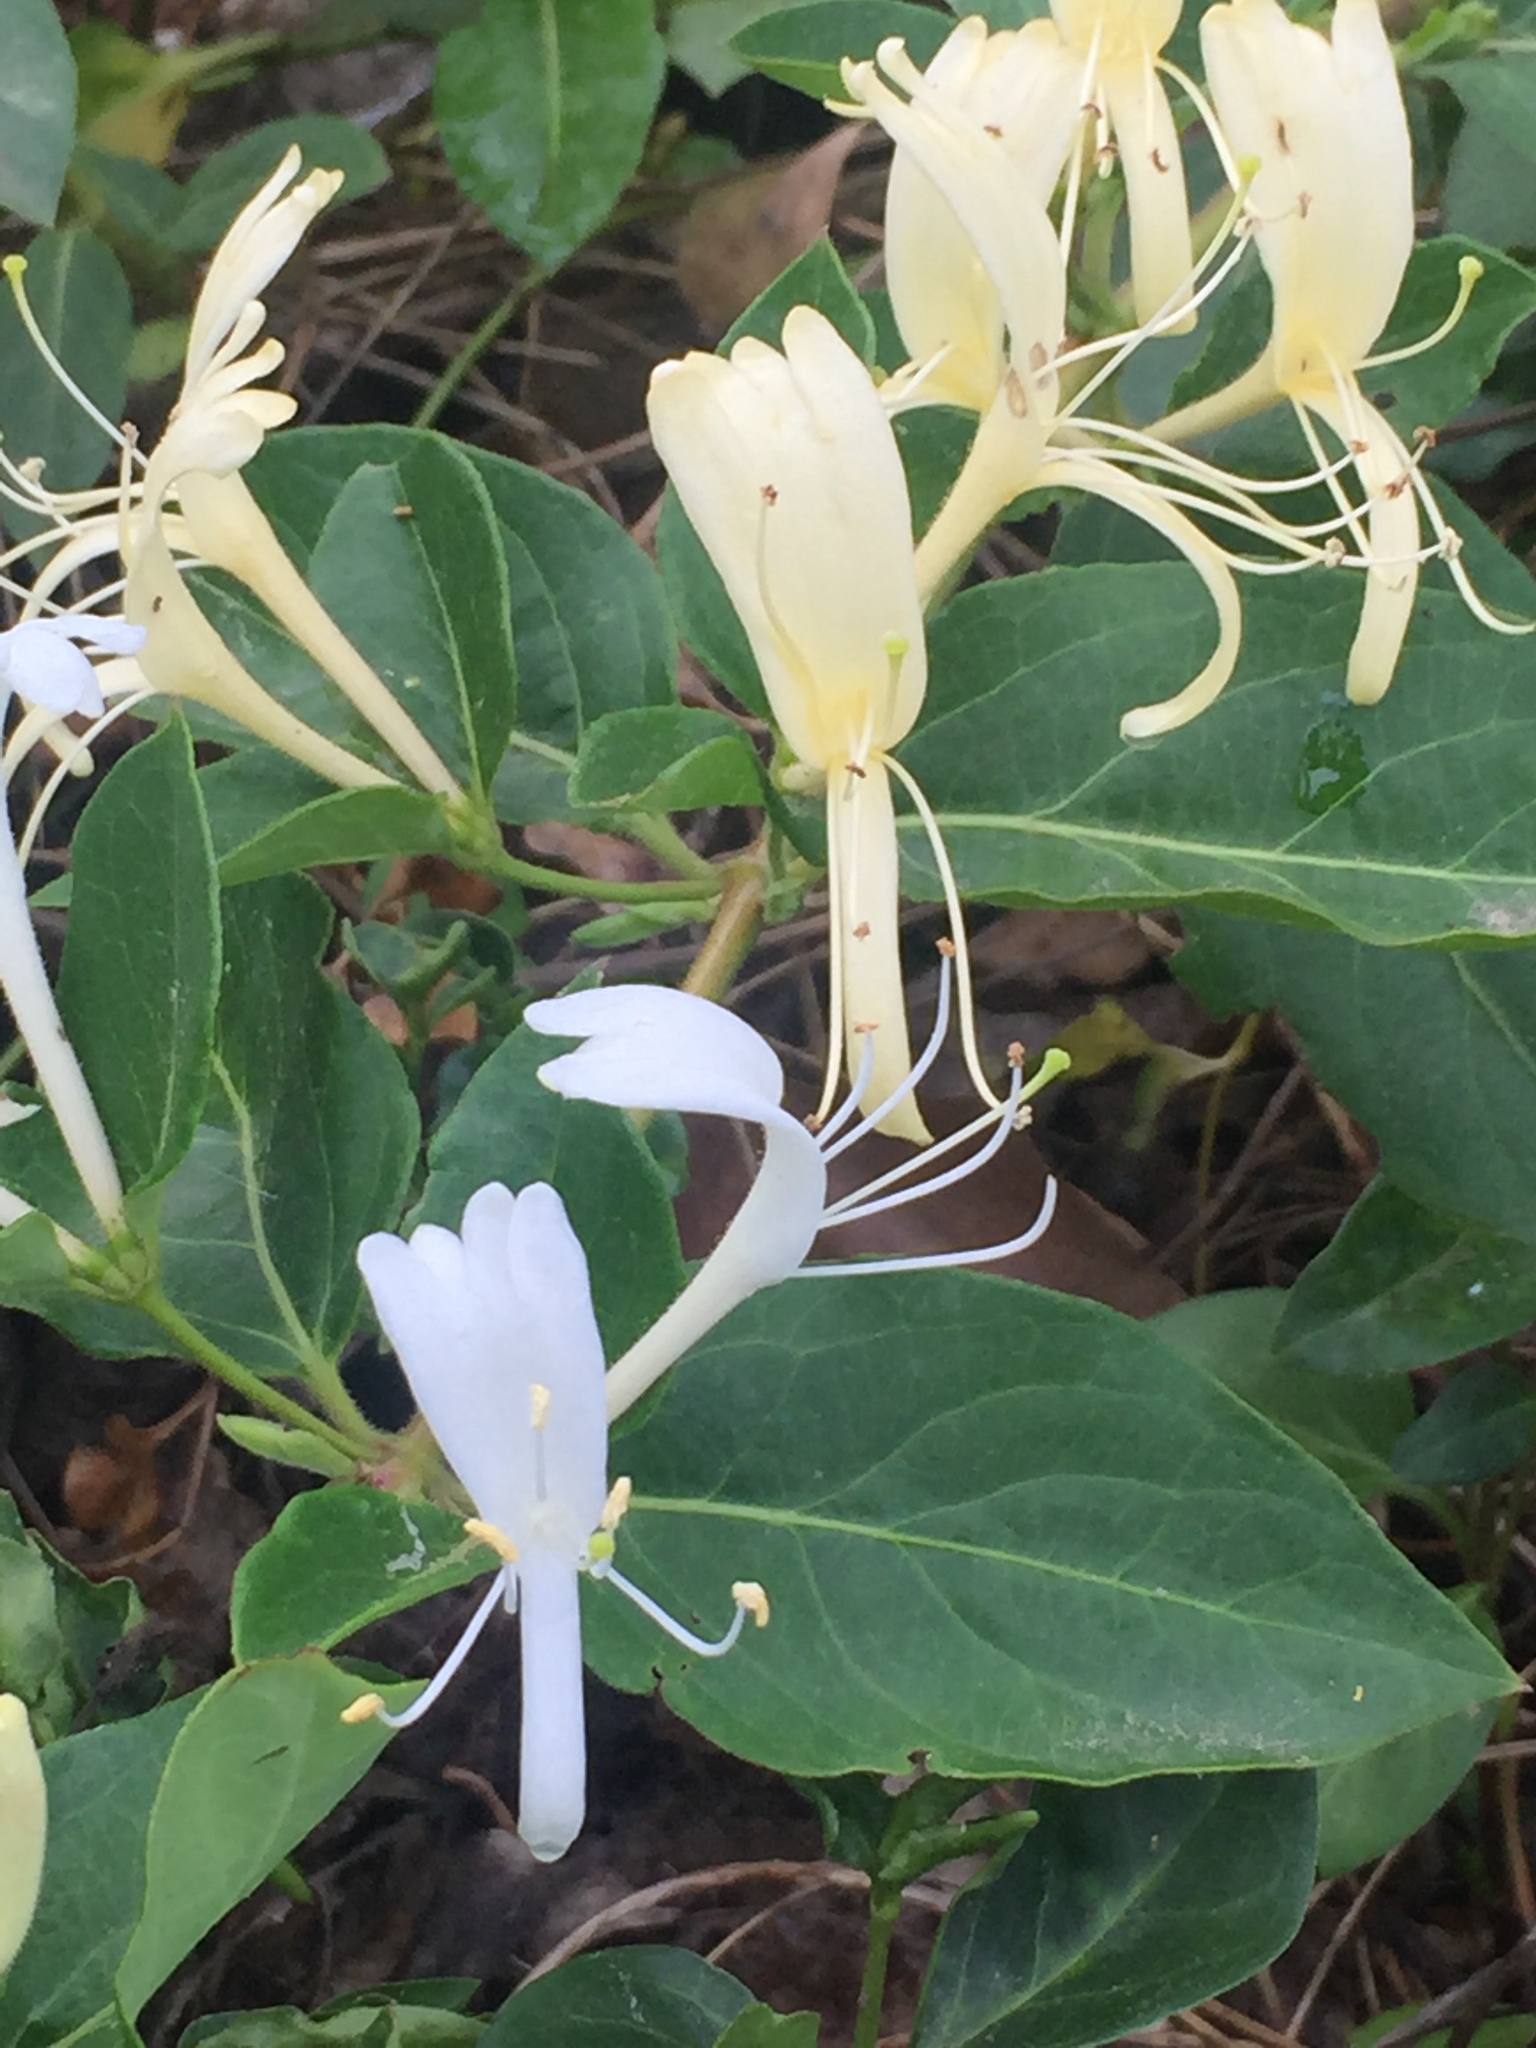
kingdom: Plantae
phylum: Tracheophyta
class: Magnoliopsida
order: Dipsacales
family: Caprifoliaceae
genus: Lonicera
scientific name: Lonicera japonica
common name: Japanese honeysuckle
